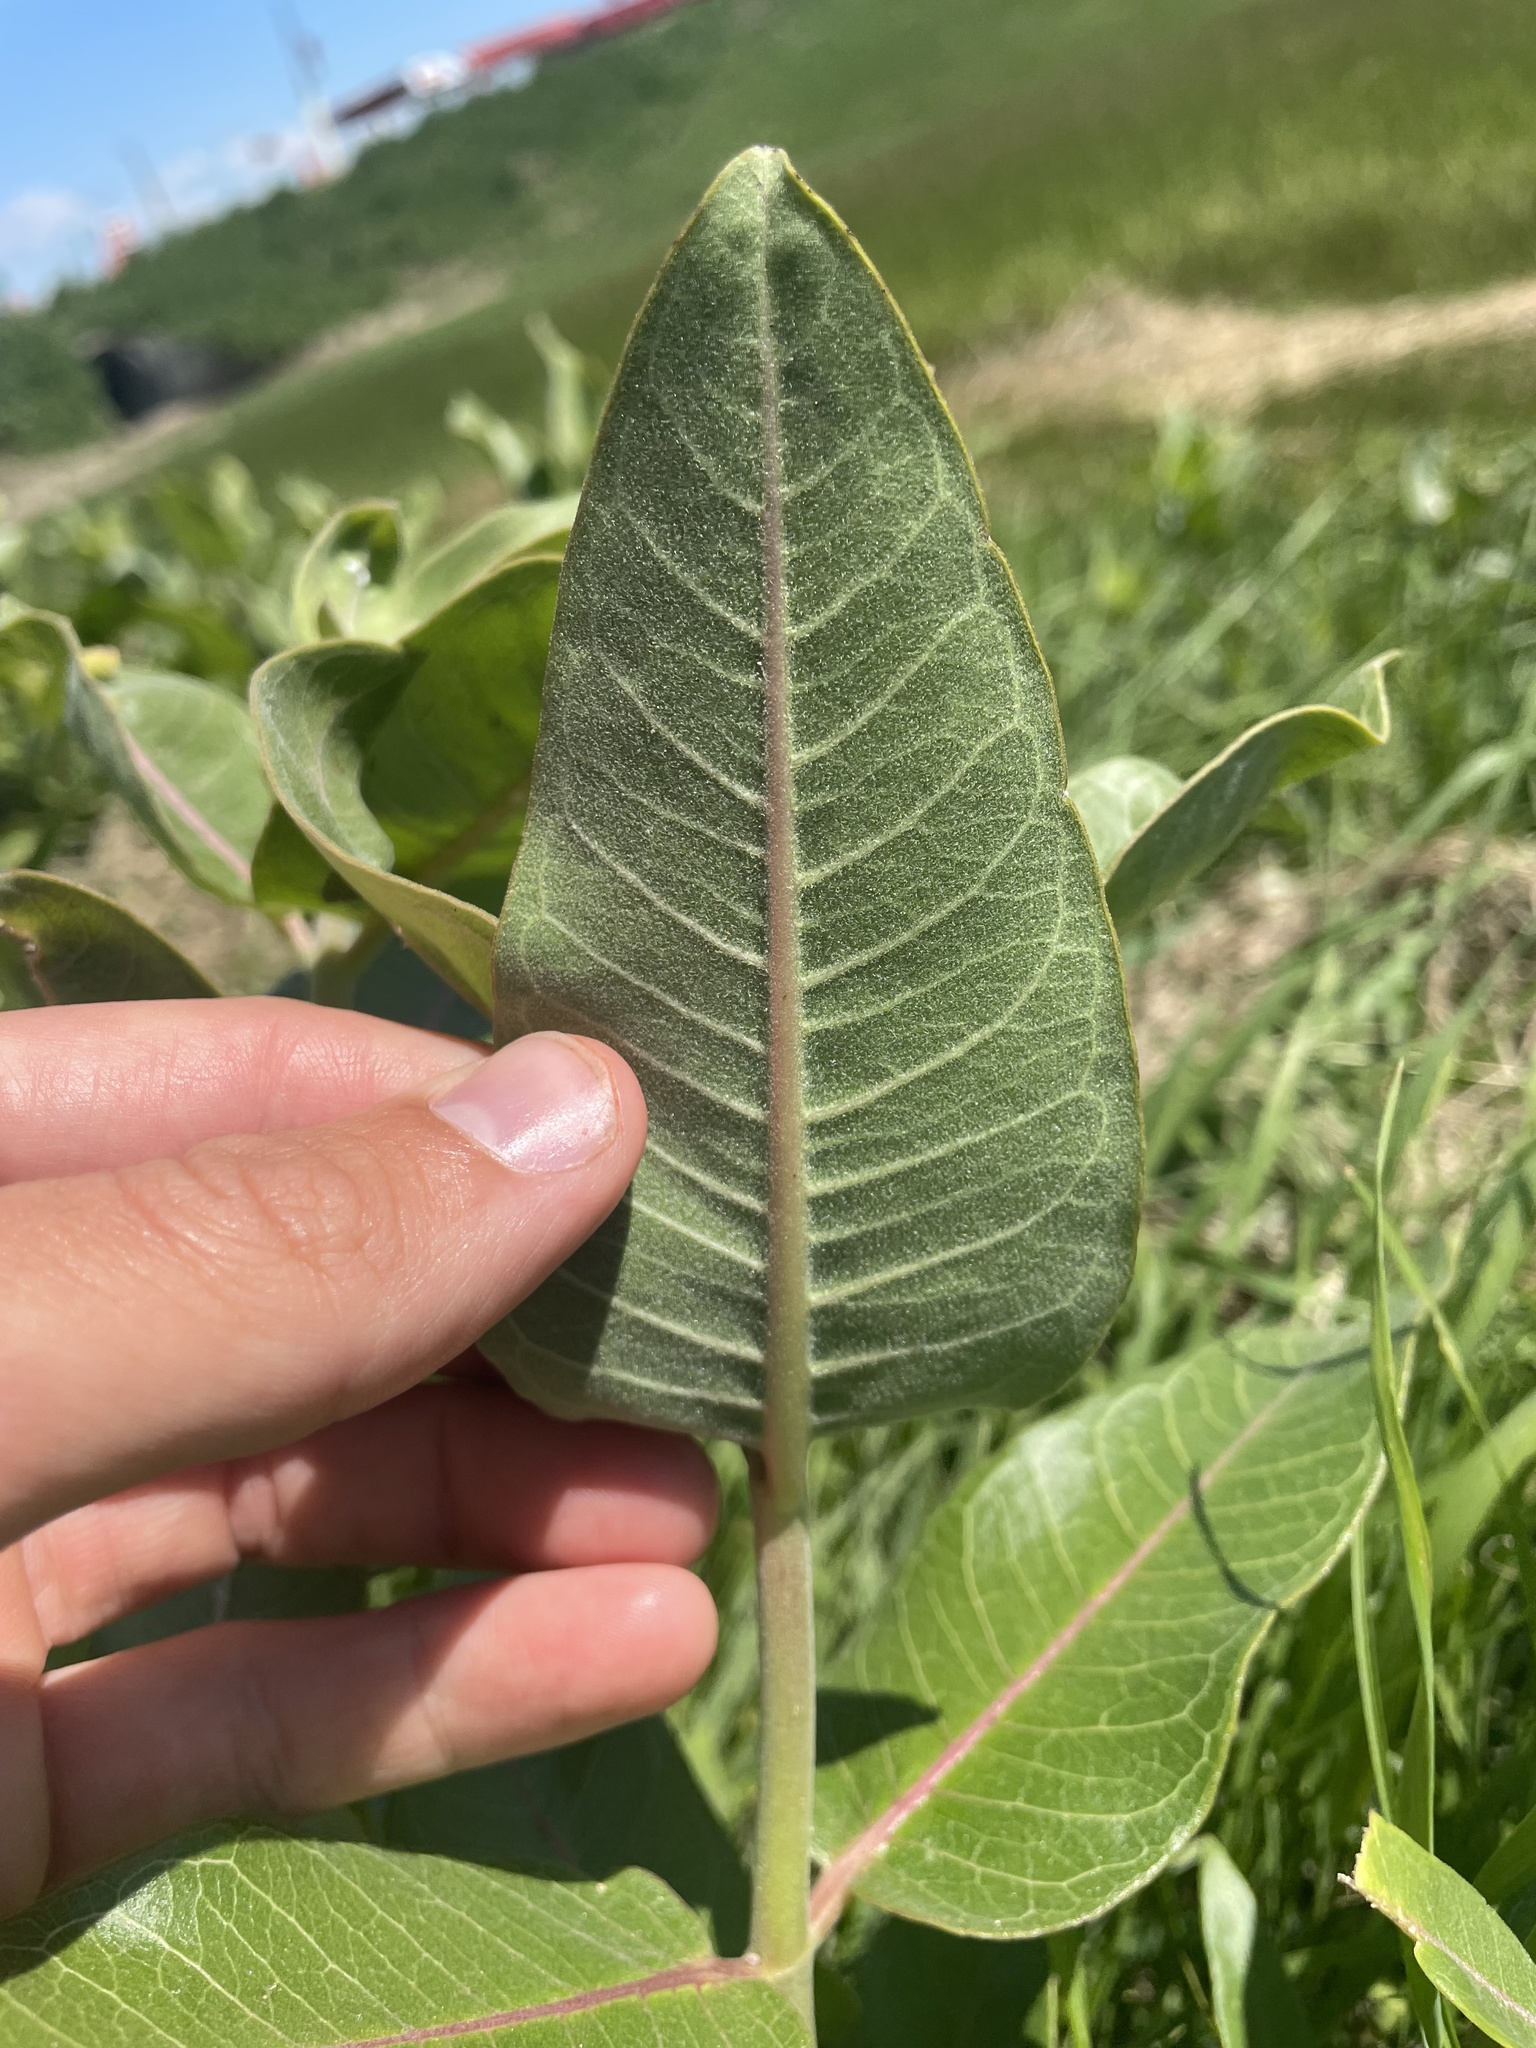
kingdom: Plantae
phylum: Tracheophyta
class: Magnoliopsida
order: Gentianales
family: Apocynaceae
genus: Asclepias
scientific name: Asclepias speciosa
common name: Showy milkweed
